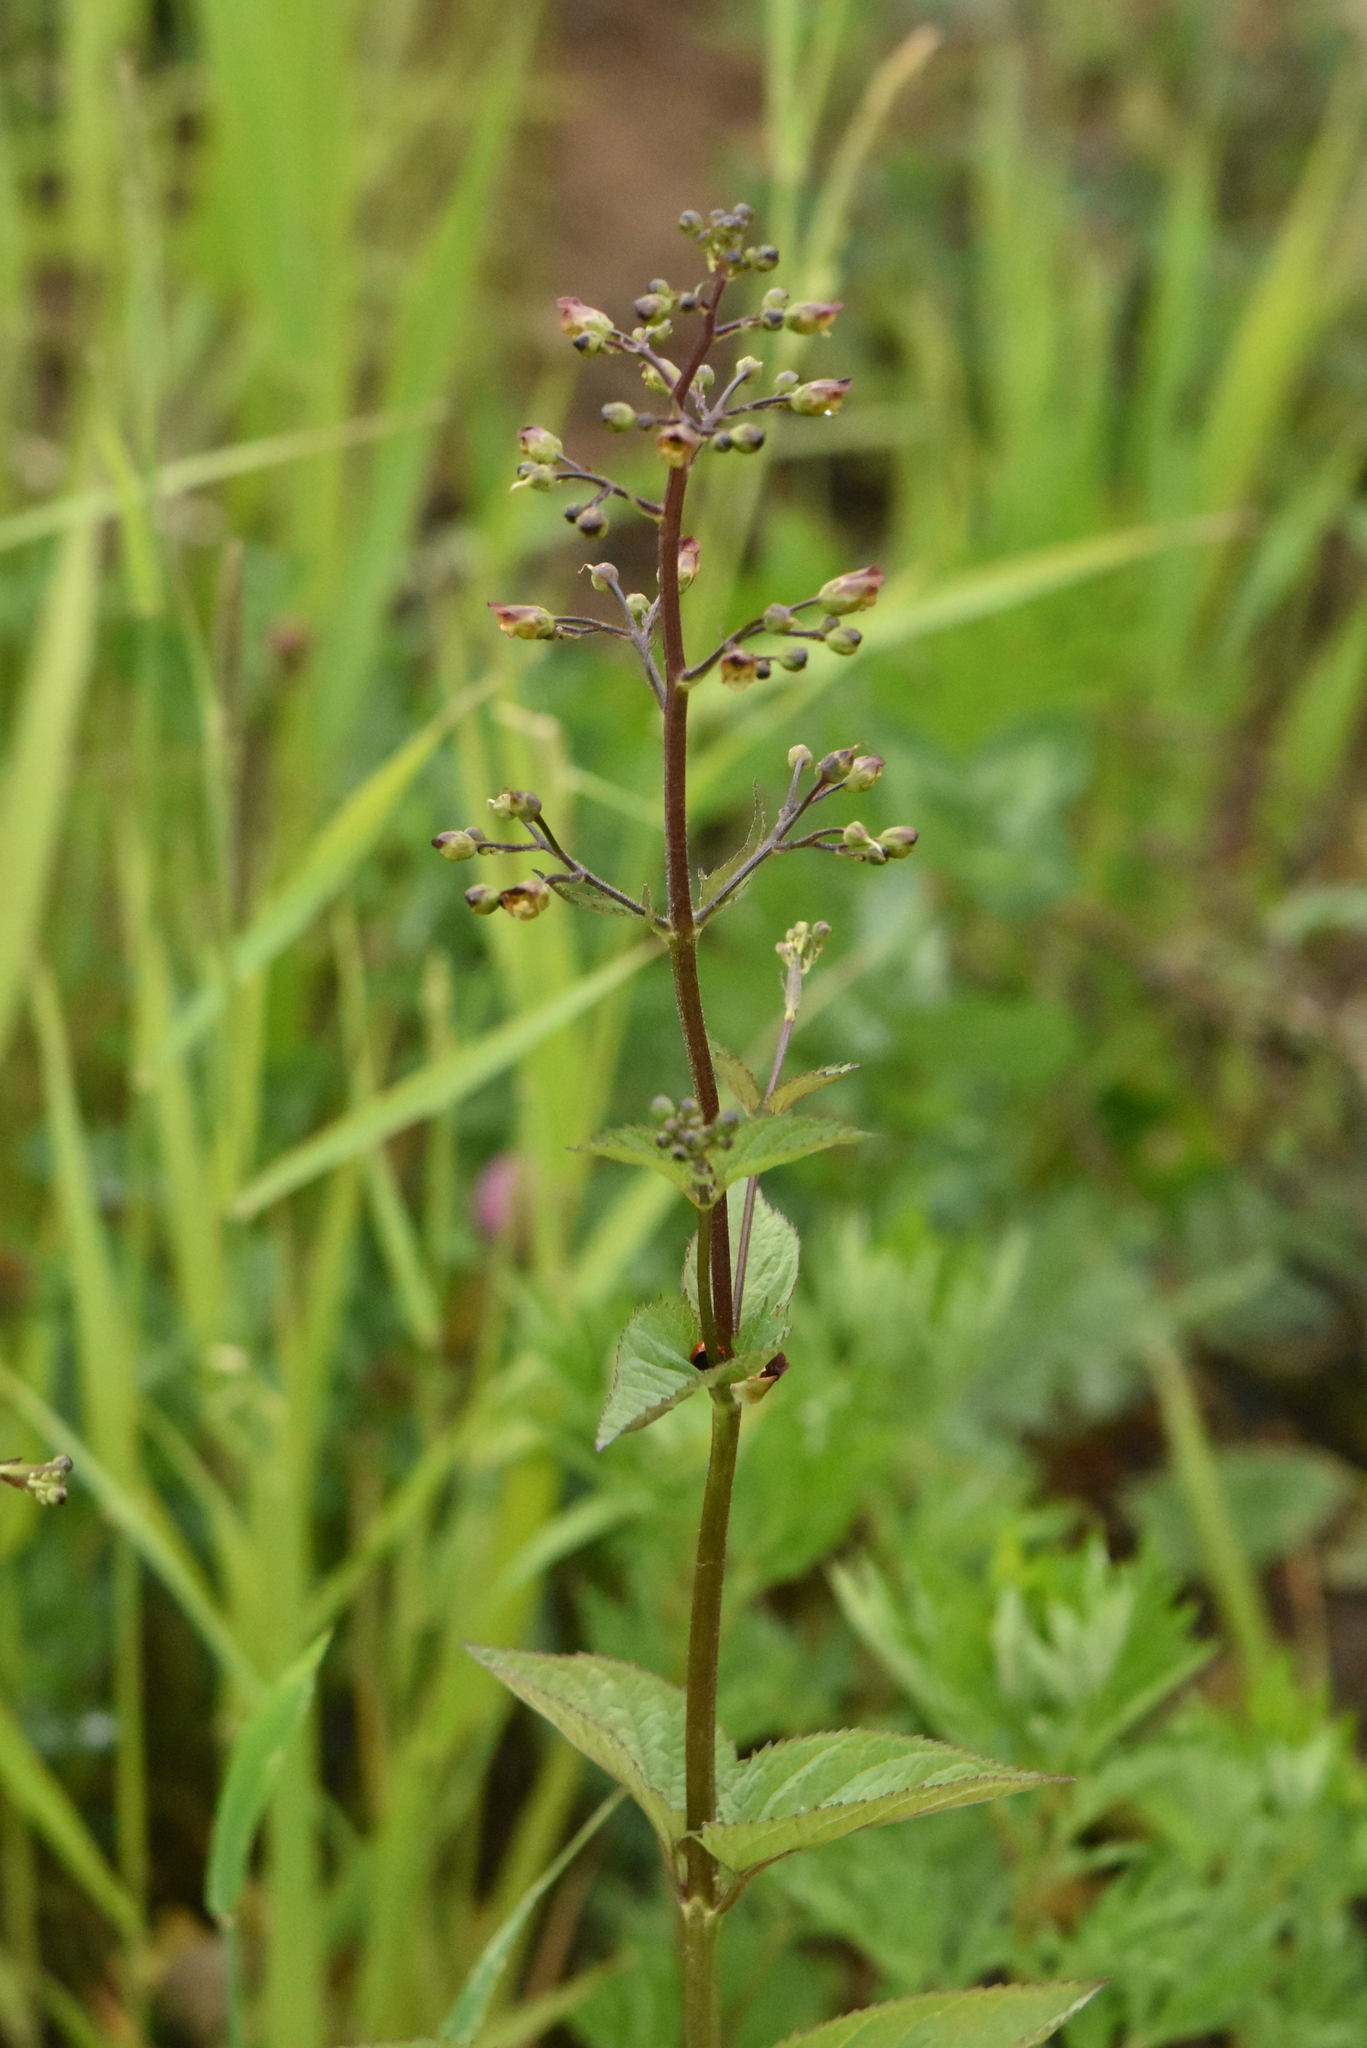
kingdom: Plantae
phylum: Tracheophyta
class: Magnoliopsida
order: Lamiales
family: Scrophulariaceae
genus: Scrophularia
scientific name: Scrophularia nodosa
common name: Common figwort
